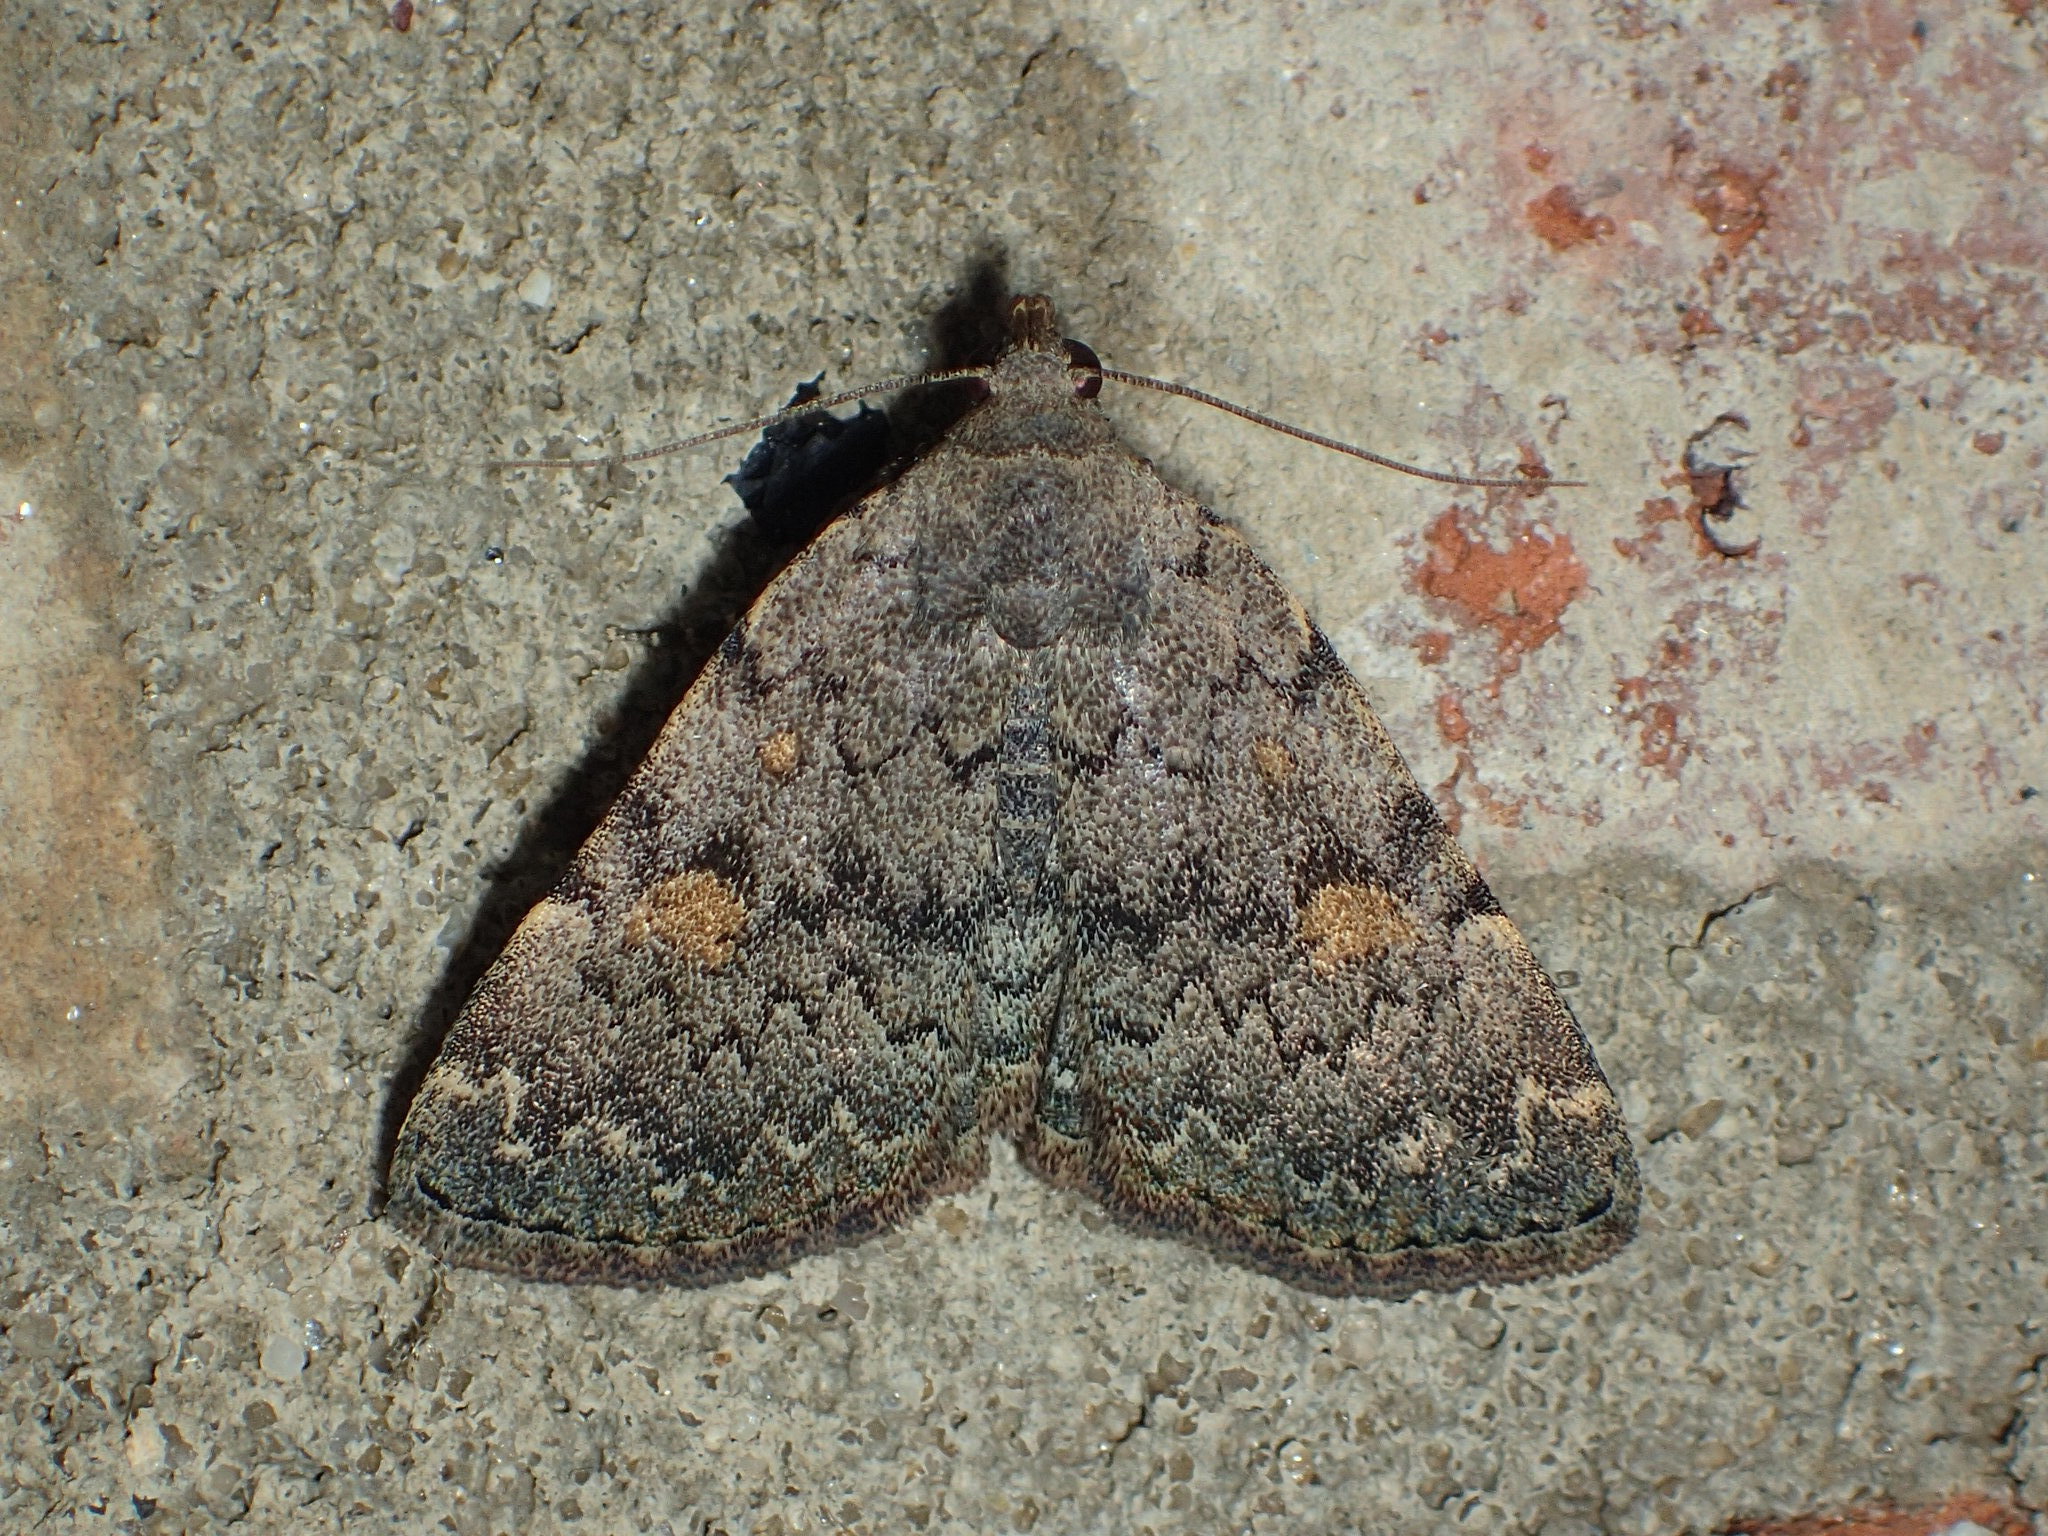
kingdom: Animalia
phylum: Arthropoda
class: Insecta
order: Lepidoptera
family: Erebidae
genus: Idia
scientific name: Idia aemula
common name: Common idia moth
